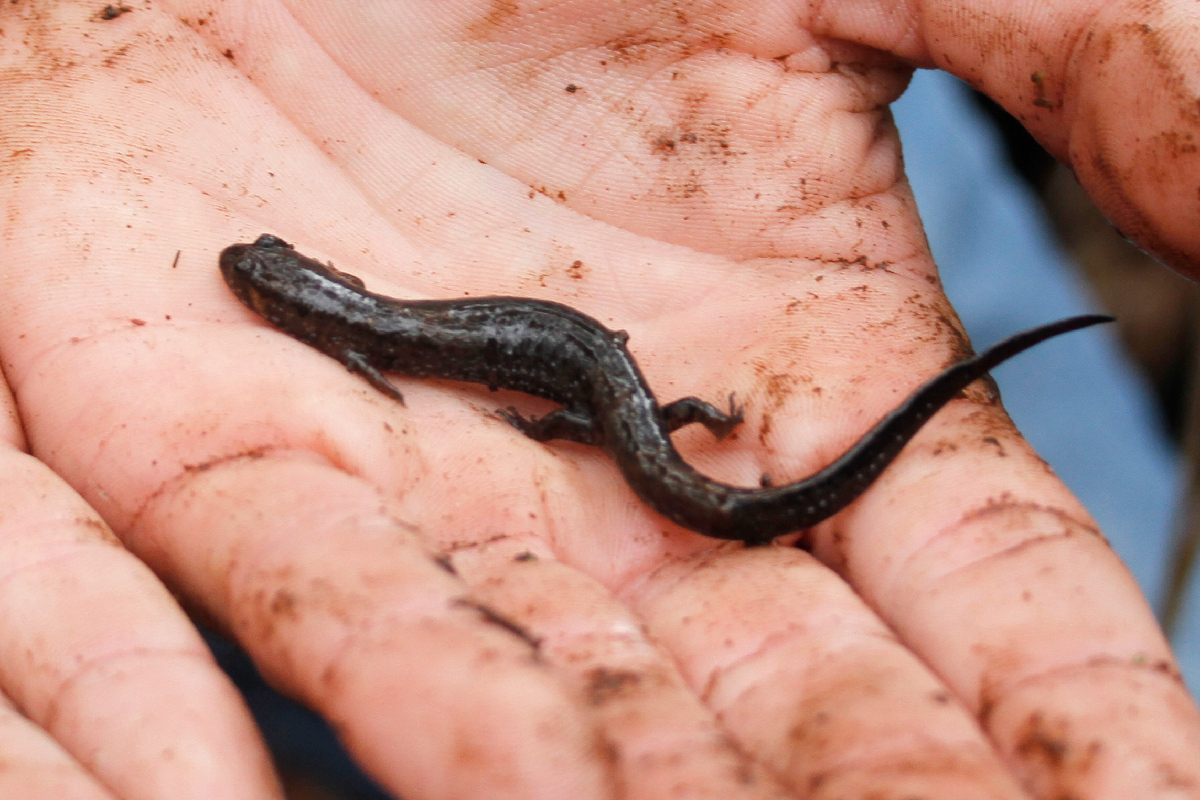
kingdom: Animalia
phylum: Chordata
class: Amphibia
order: Caudata
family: Plethodontidae
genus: Desmognathus
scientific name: Desmognathus valtos
